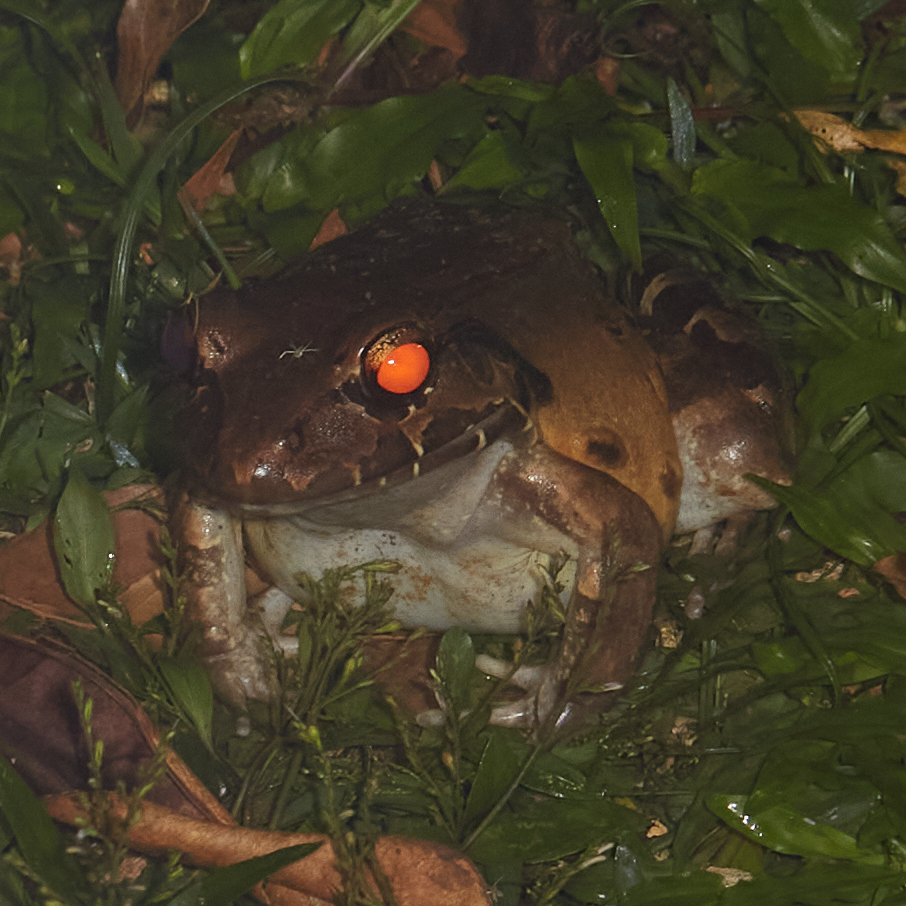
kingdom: Animalia
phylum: Chordata
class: Amphibia
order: Anura
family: Leptodactylidae
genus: Leptodactylus
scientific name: Leptodactylus savagei
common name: Savage's thin-toed frog
